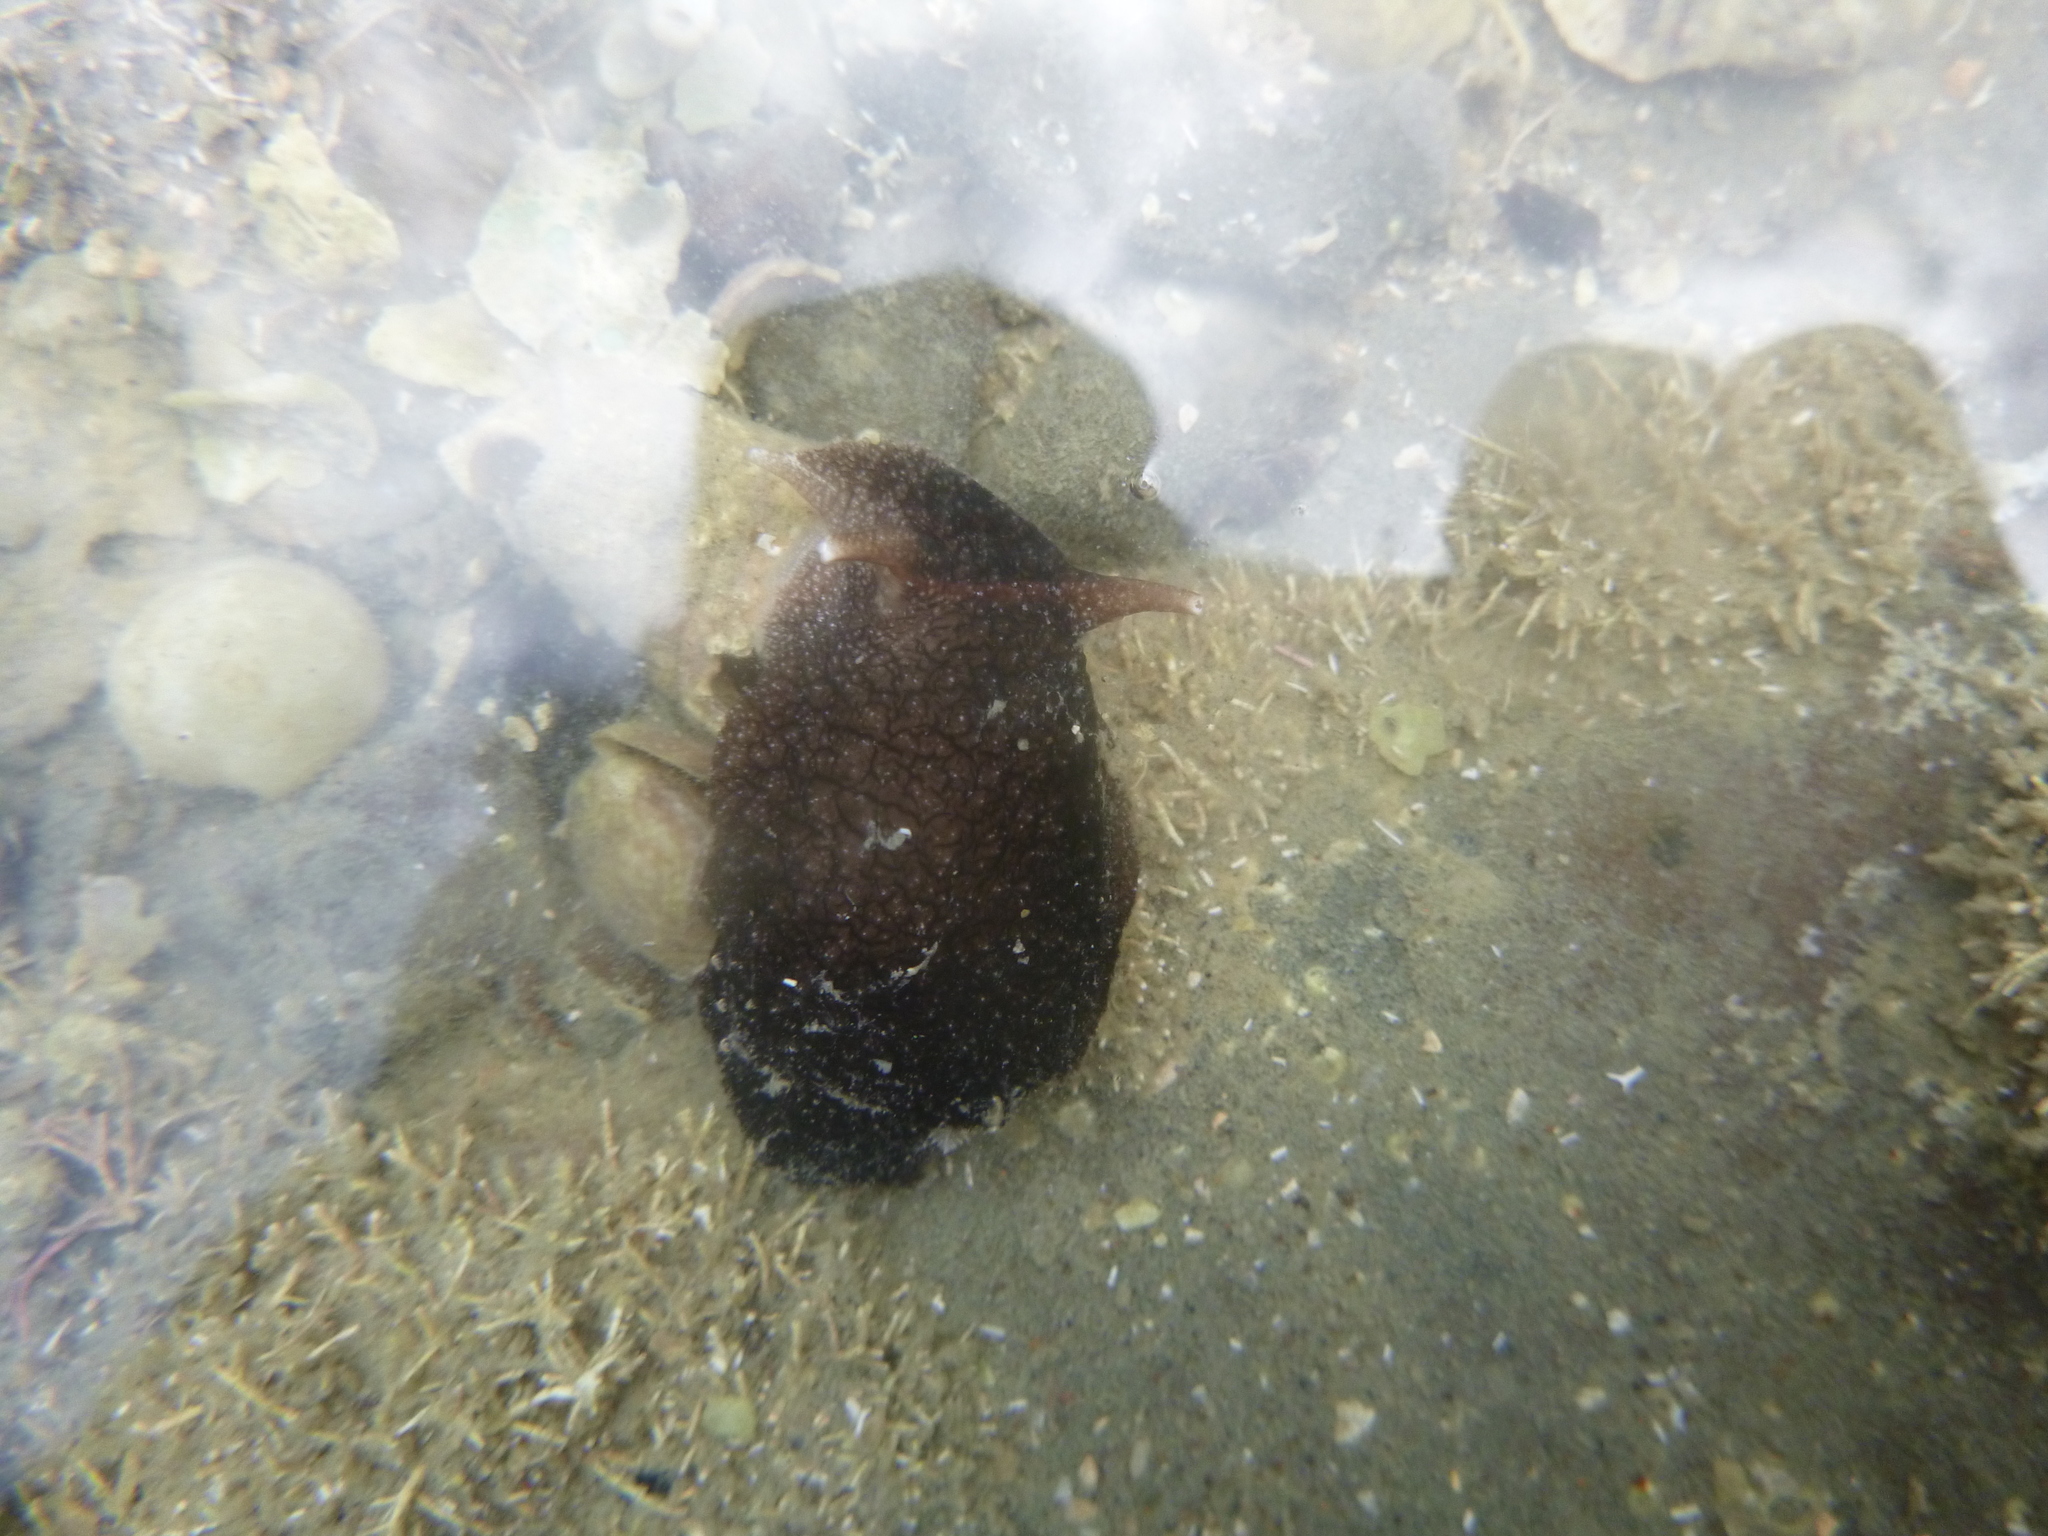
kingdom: Animalia
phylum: Mollusca
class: Gastropoda
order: Pleurobranchida
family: Pleurobranchaeidae
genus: Pleurobranchaea
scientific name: Pleurobranchaea maculata
